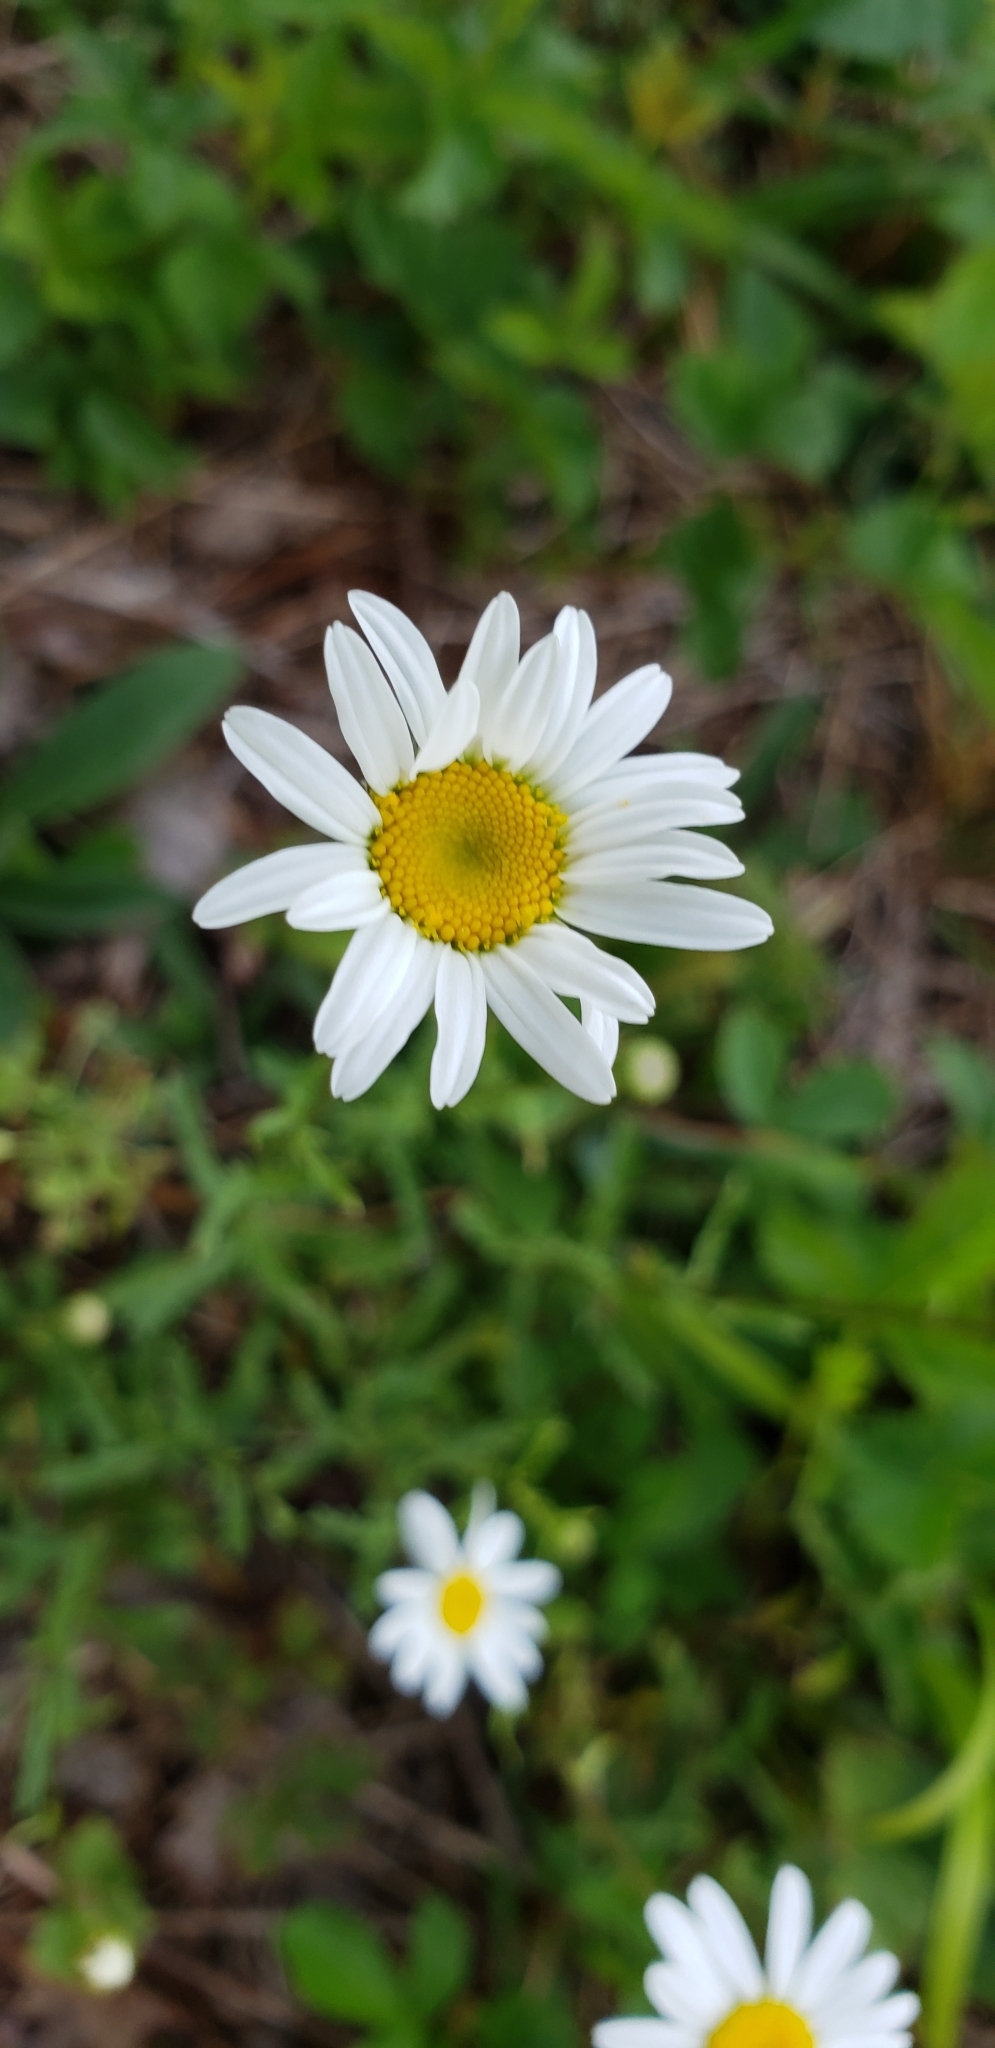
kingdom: Plantae
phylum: Tracheophyta
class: Magnoliopsida
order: Asterales
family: Asteraceae
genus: Leucanthemum
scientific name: Leucanthemum vulgare
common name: Oxeye daisy
